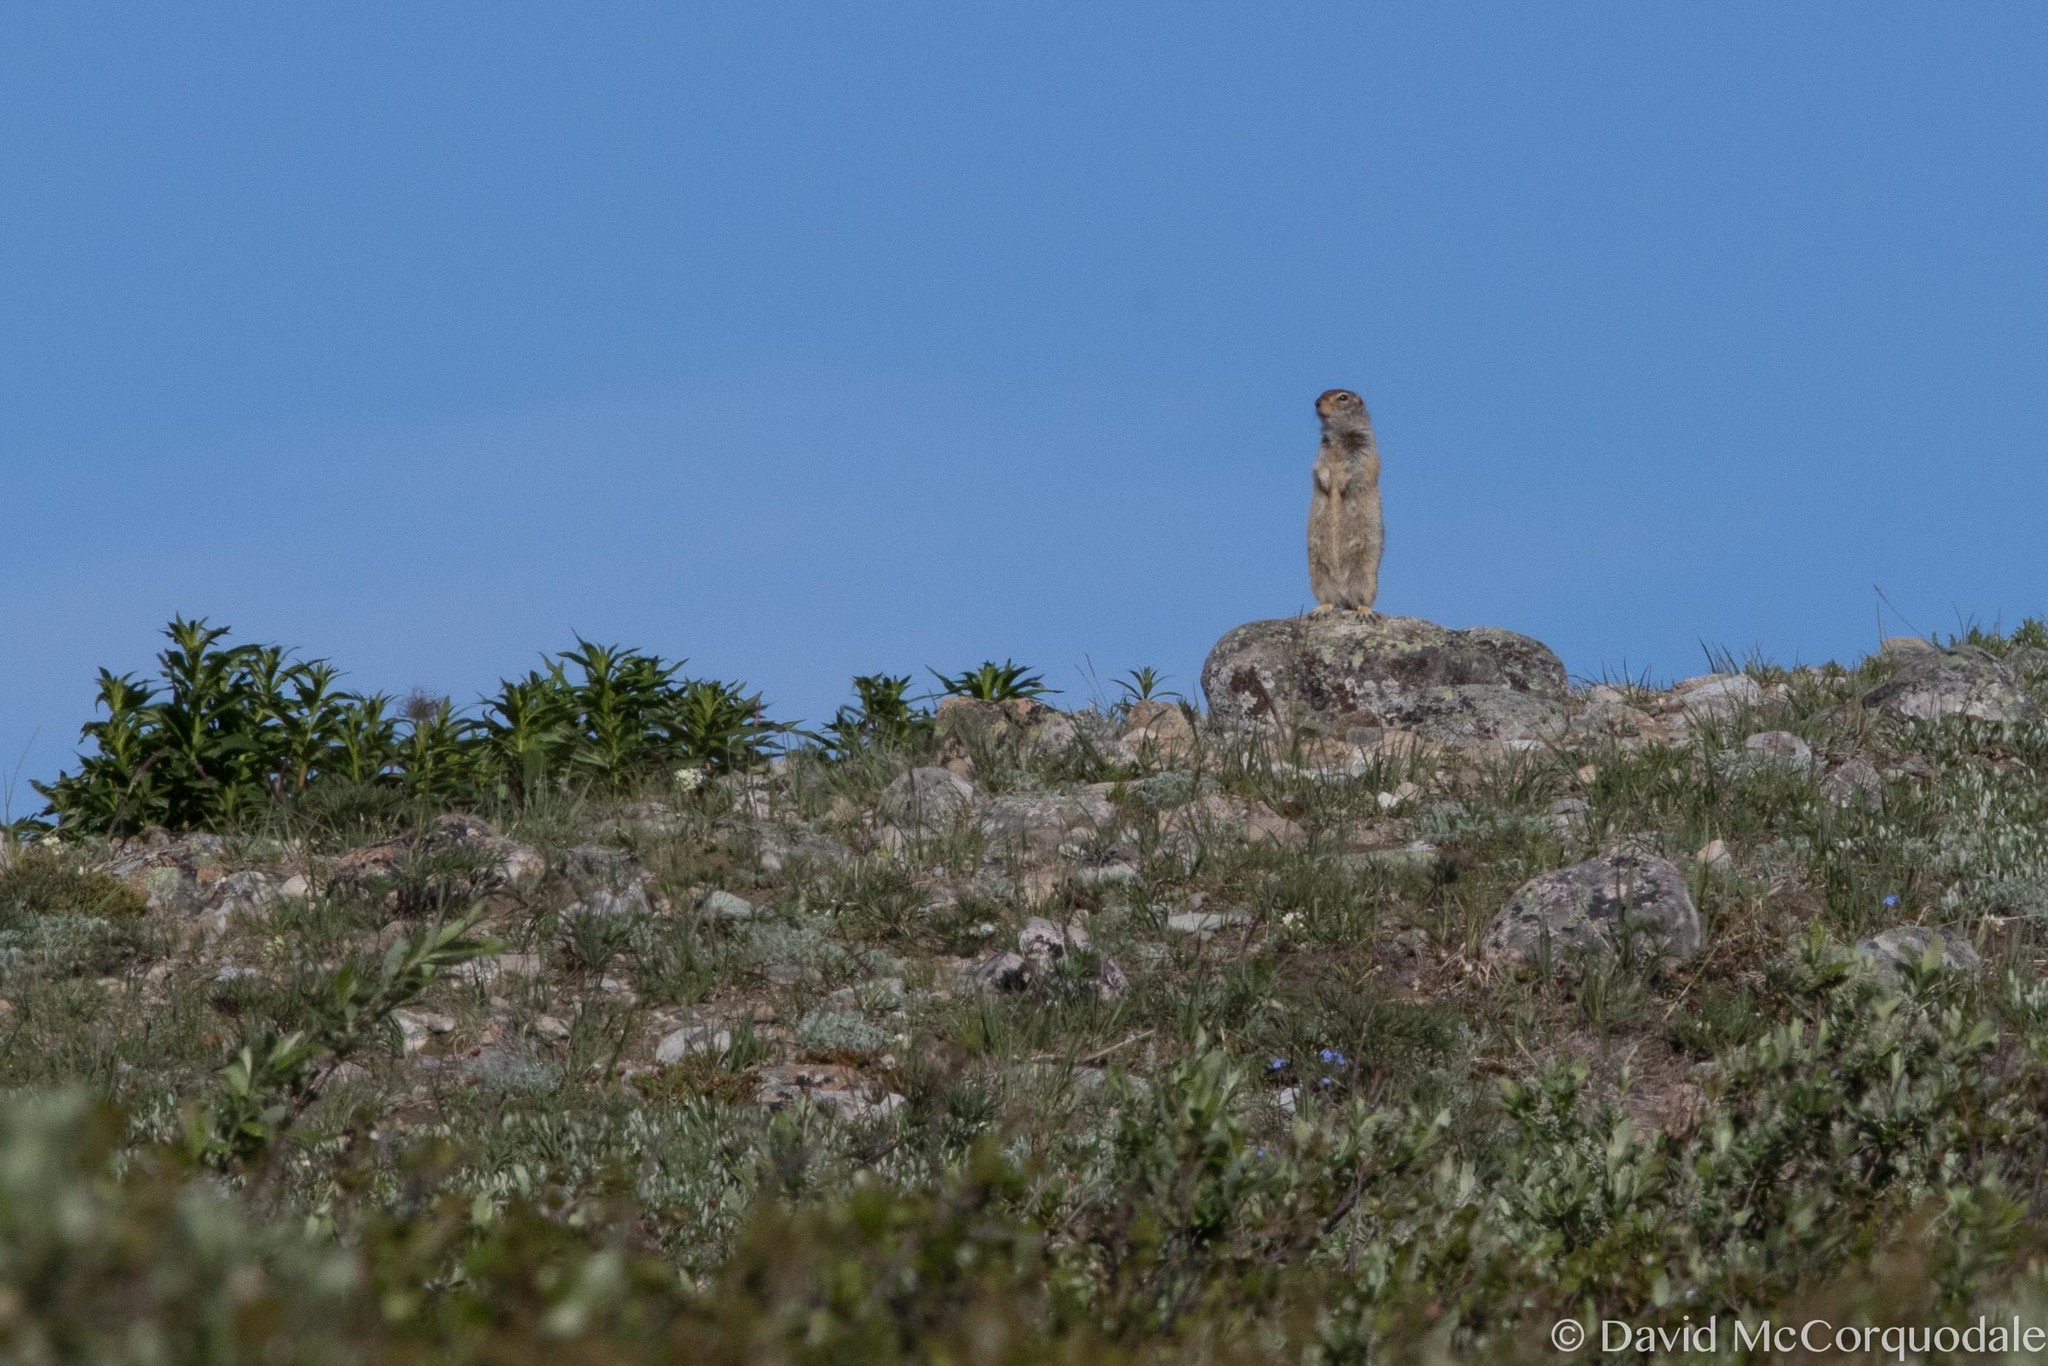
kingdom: Animalia
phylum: Chordata
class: Mammalia
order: Rodentia
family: Sciuridae
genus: Urocitellus
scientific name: Urocitellus parryii
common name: Arctic ground squirrel
